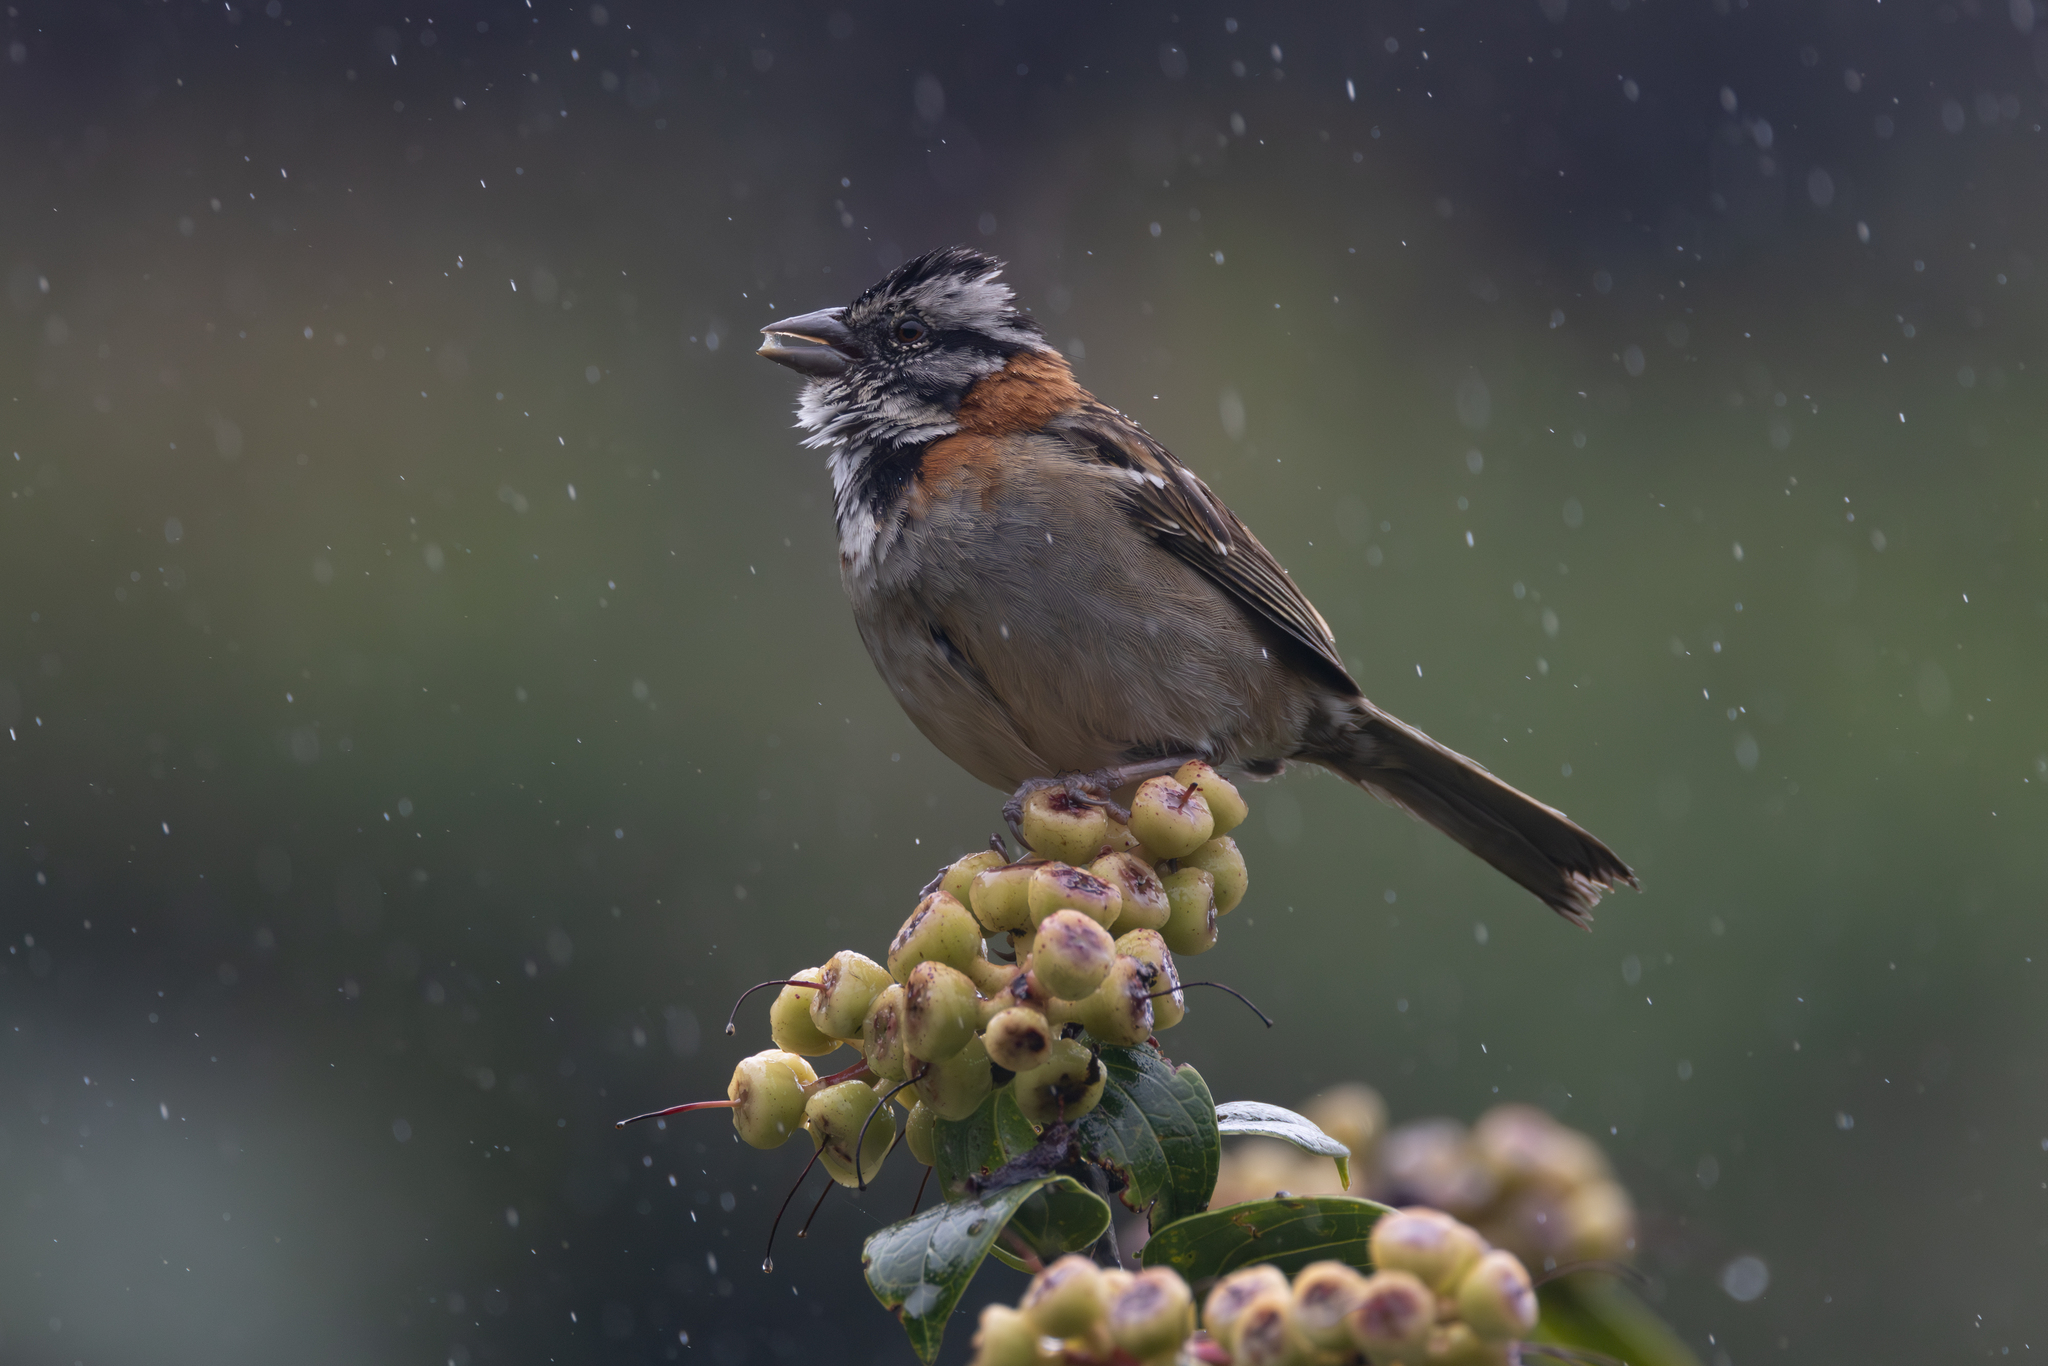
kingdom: Animalia
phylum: Chordata
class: Aves
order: Passeriformes
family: Passerellidae
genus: Zonotrichia
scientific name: Zonotrichia capensis
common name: Rufous-collared sparrow
